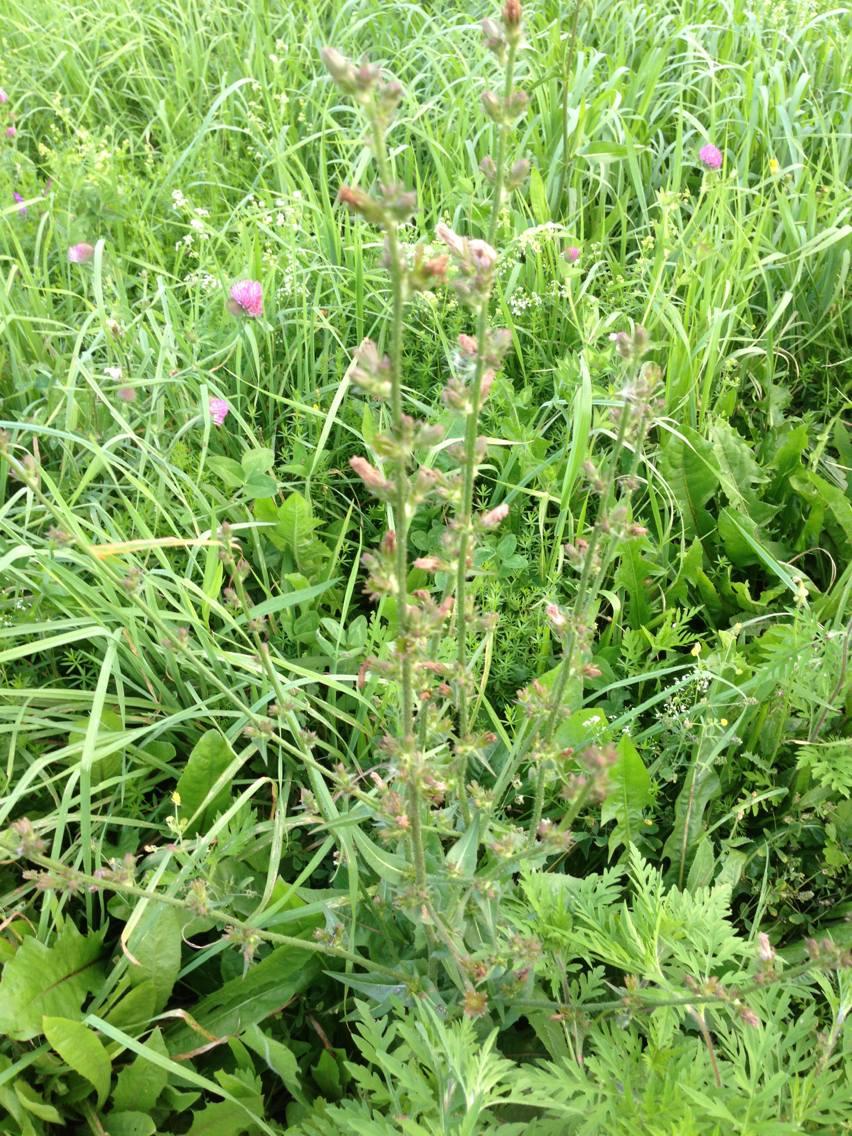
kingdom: Plantae
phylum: Tracheophyta
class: Magnoliopsida
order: Asterales
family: Asteraceae
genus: Cichorium
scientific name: Cichorium intybus
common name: Chicory
